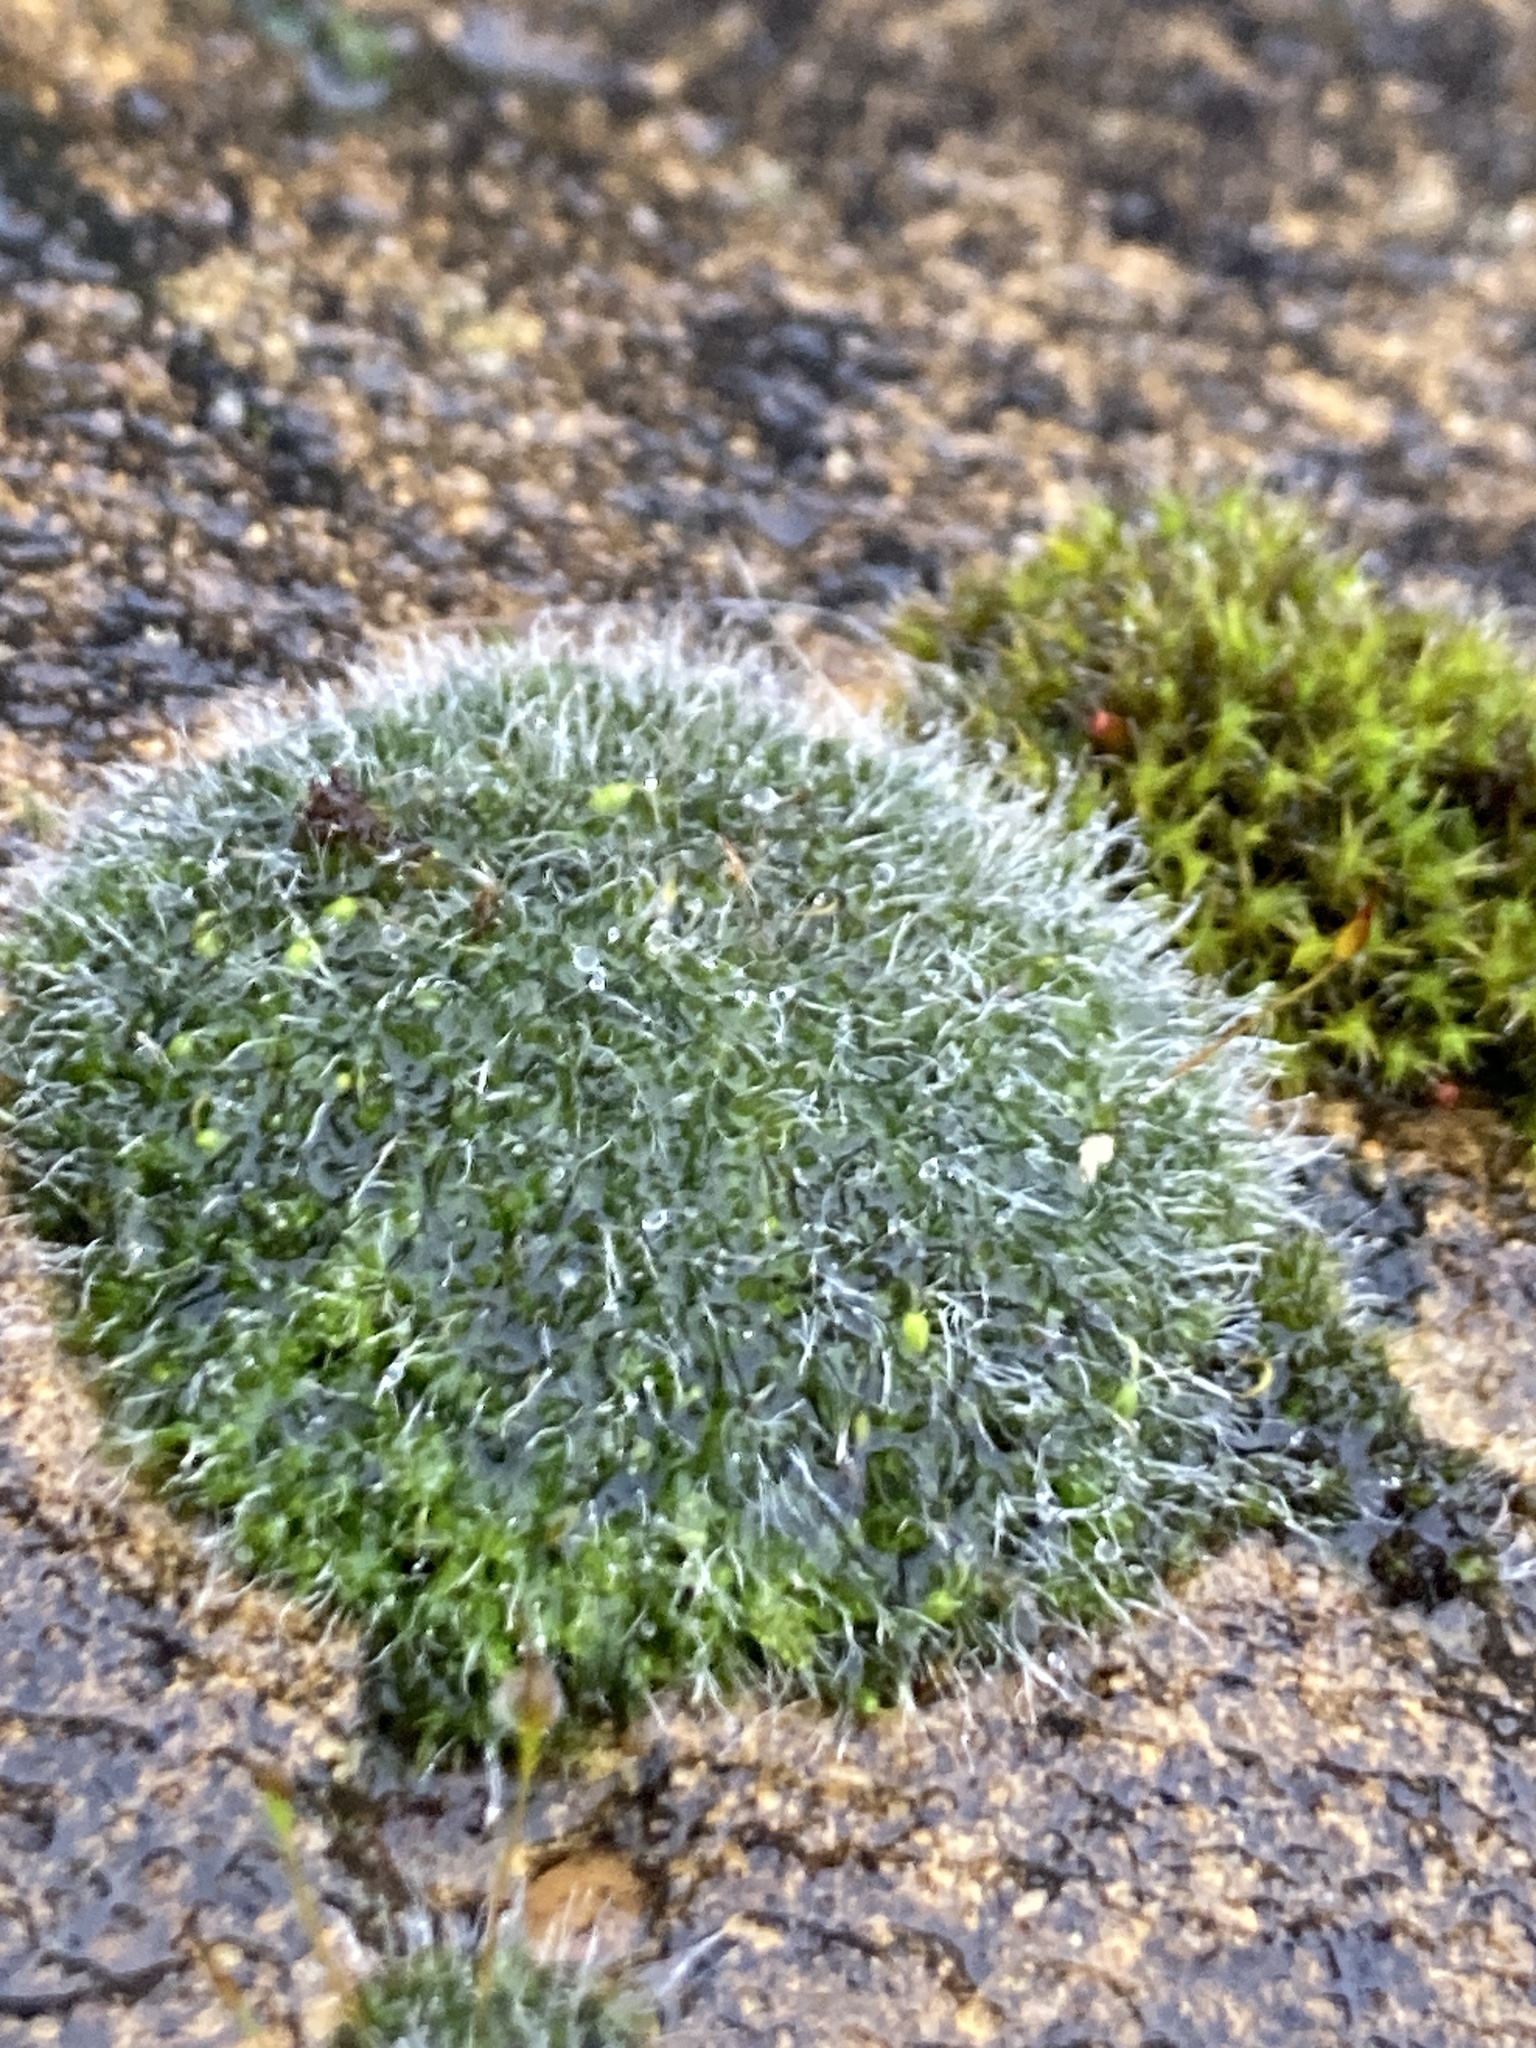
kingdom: Plantae
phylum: Bryophyta
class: Bryopsida
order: Grimmiales
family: Grimmiaceae
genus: Grimmia
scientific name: Grimmia pulvinata
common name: Grey-cushioned grimmia
